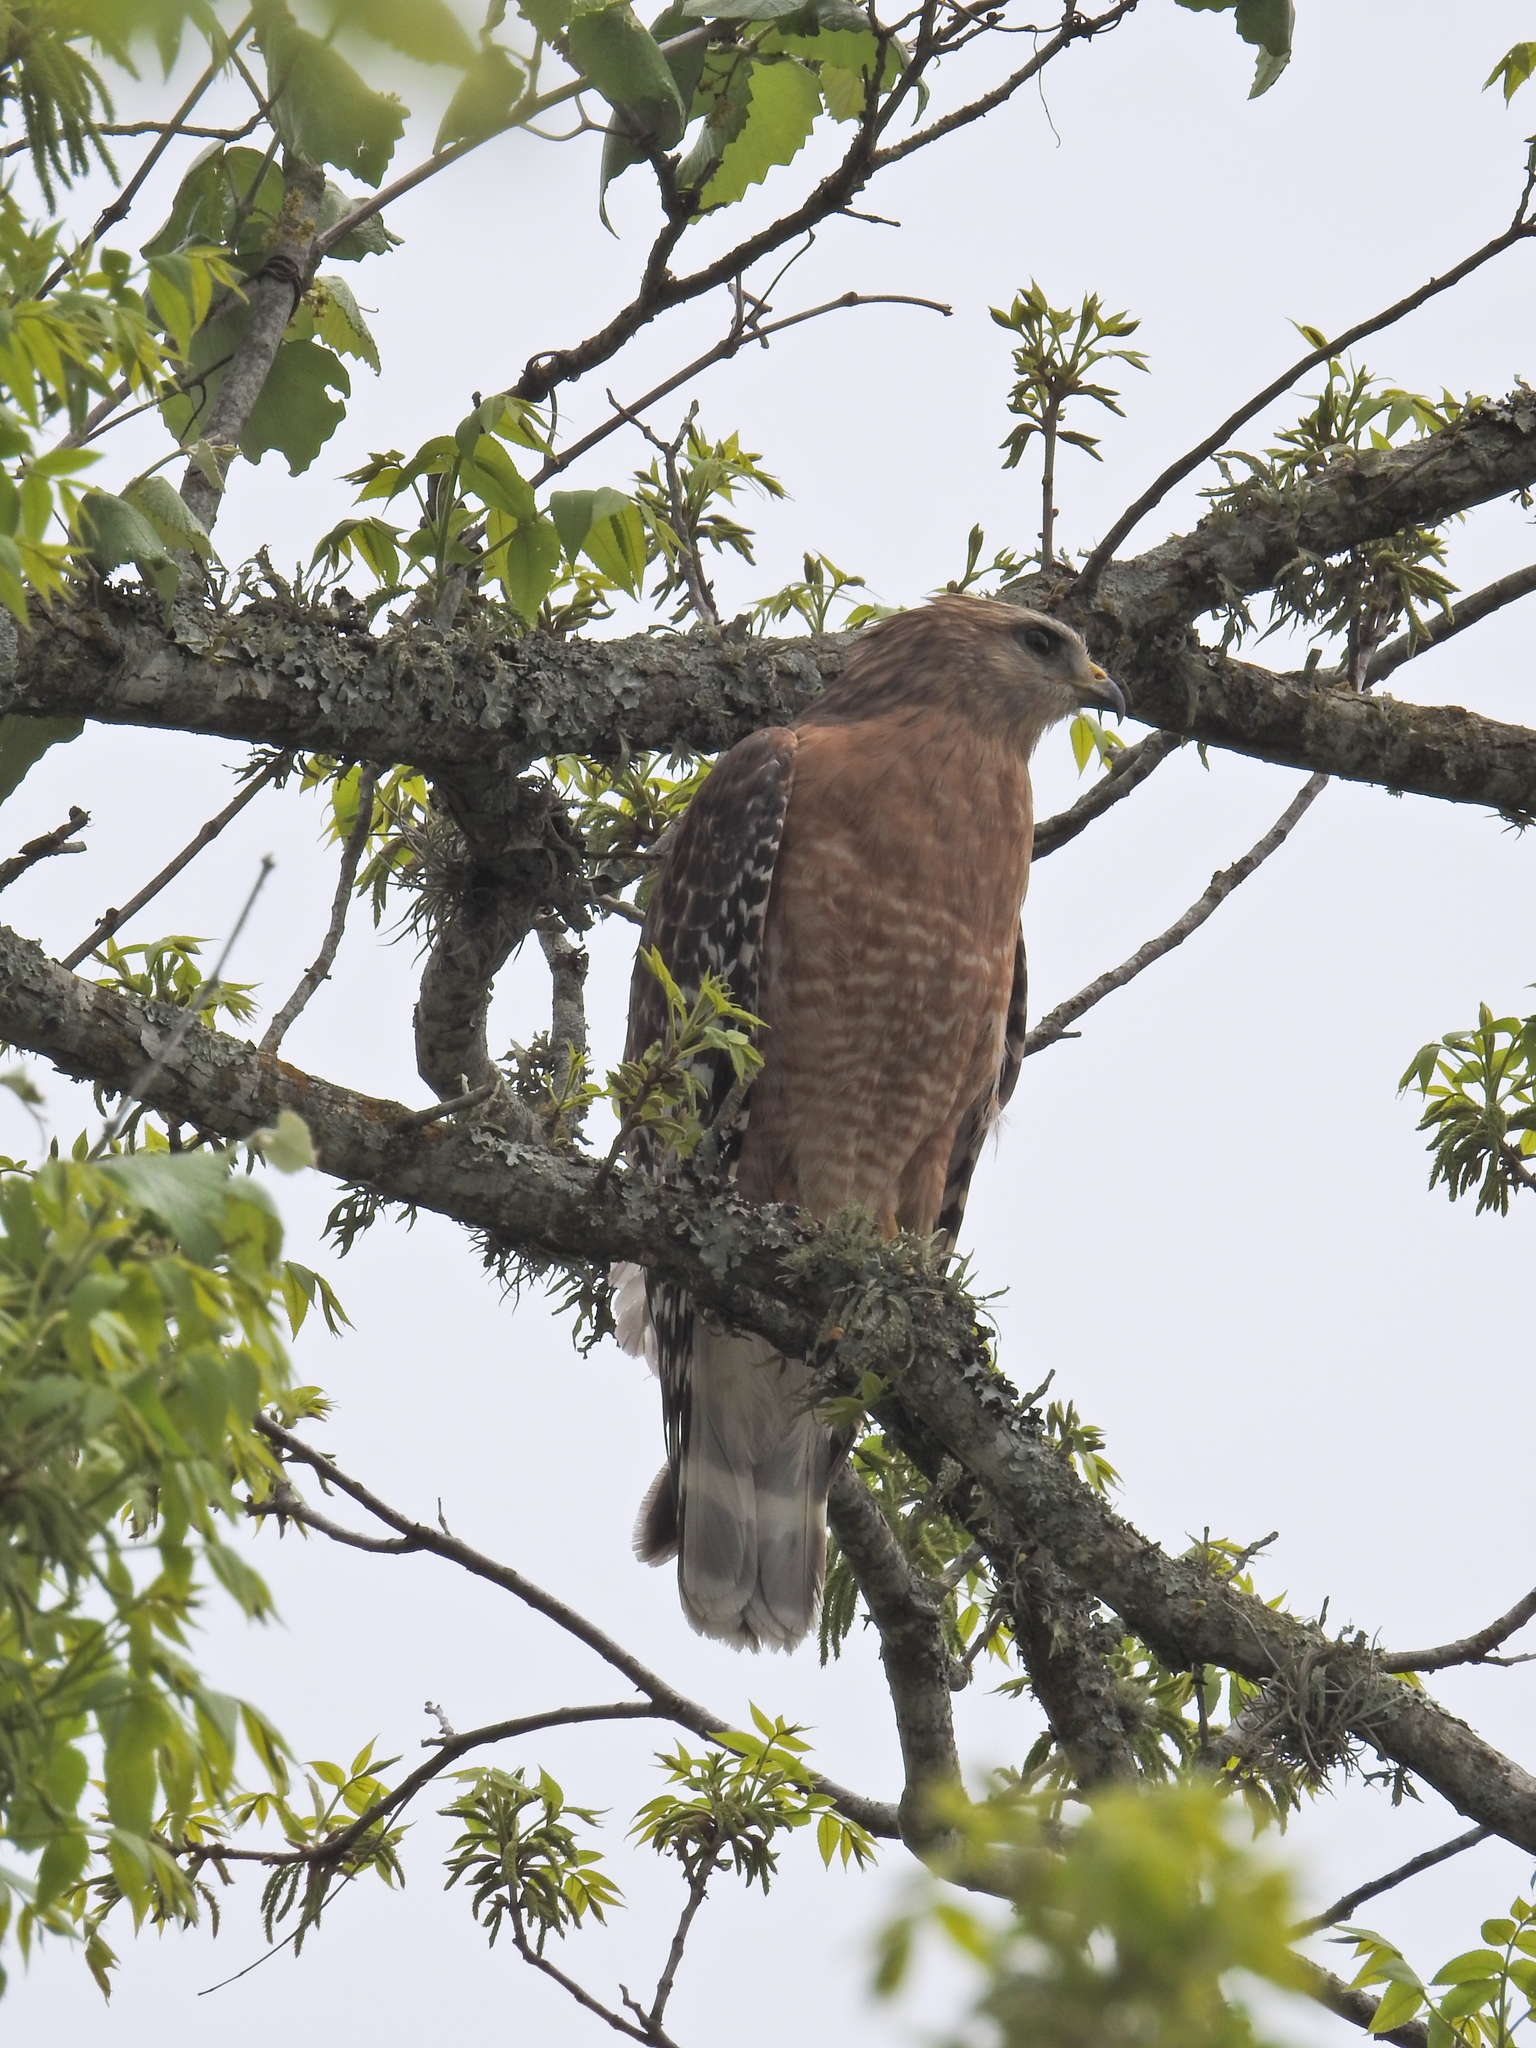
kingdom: Animalia
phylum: Chordata
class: Aves
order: Accipitriformes
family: Accipitridae
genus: Buteo
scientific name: Buteo lineatus
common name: Red-shouldered hawk
